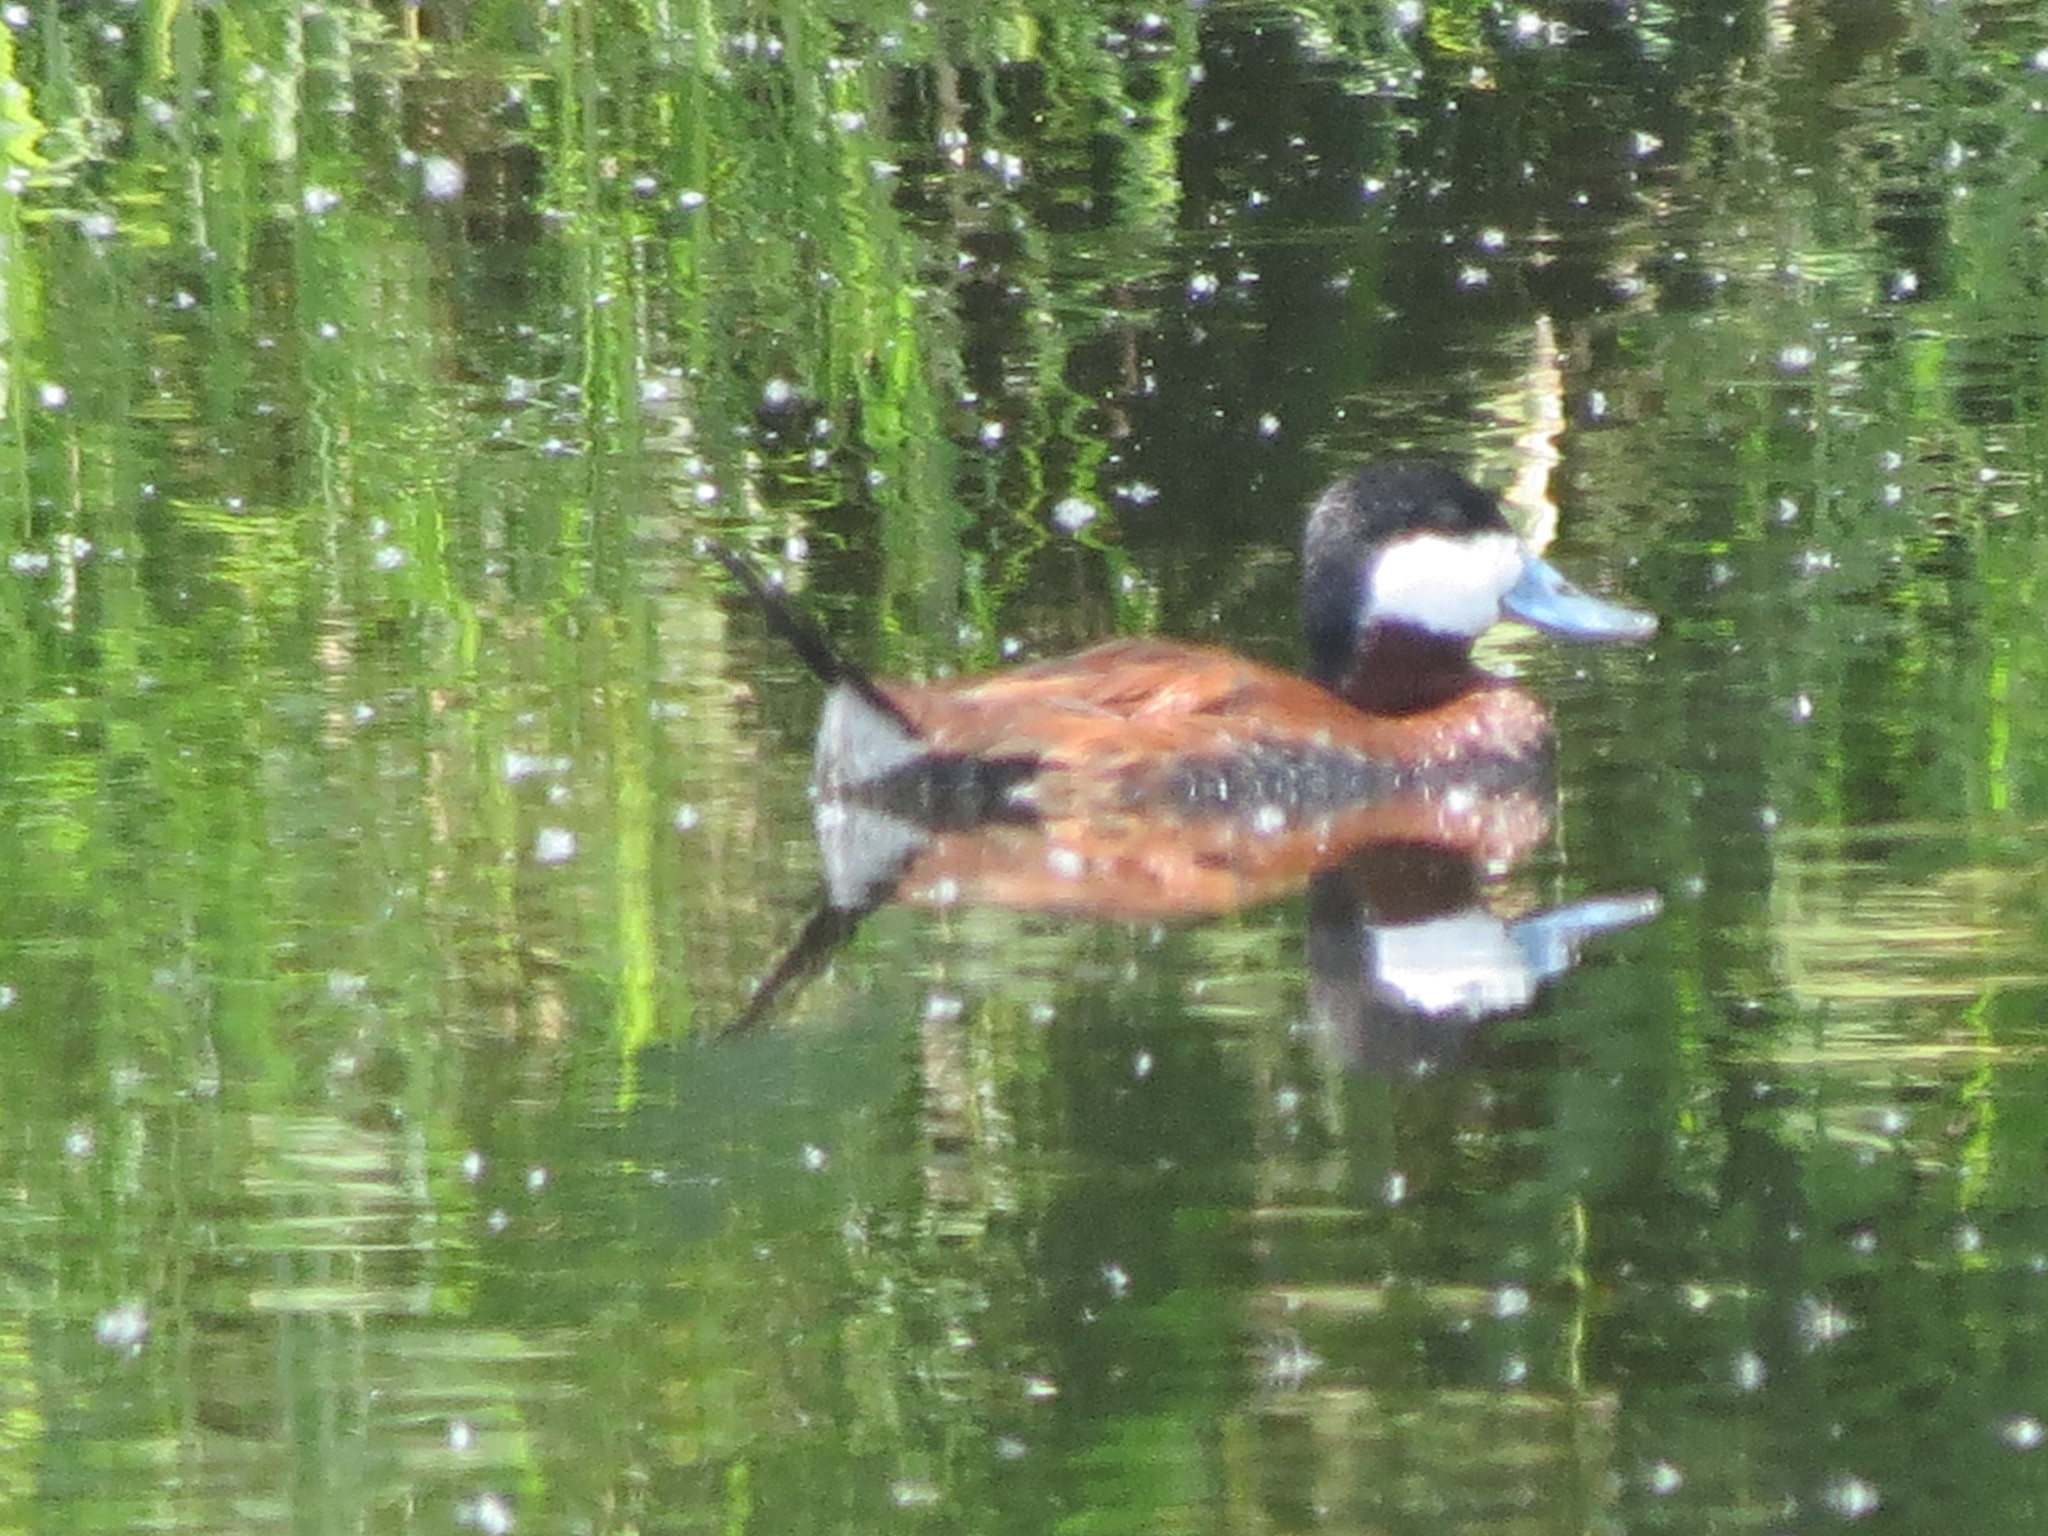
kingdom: Animalia
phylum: Chordata
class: Aves
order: Anseriformes
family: Anatidae
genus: Oxyura
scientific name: Oxyura jamaicensis
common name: Ruddy duck
